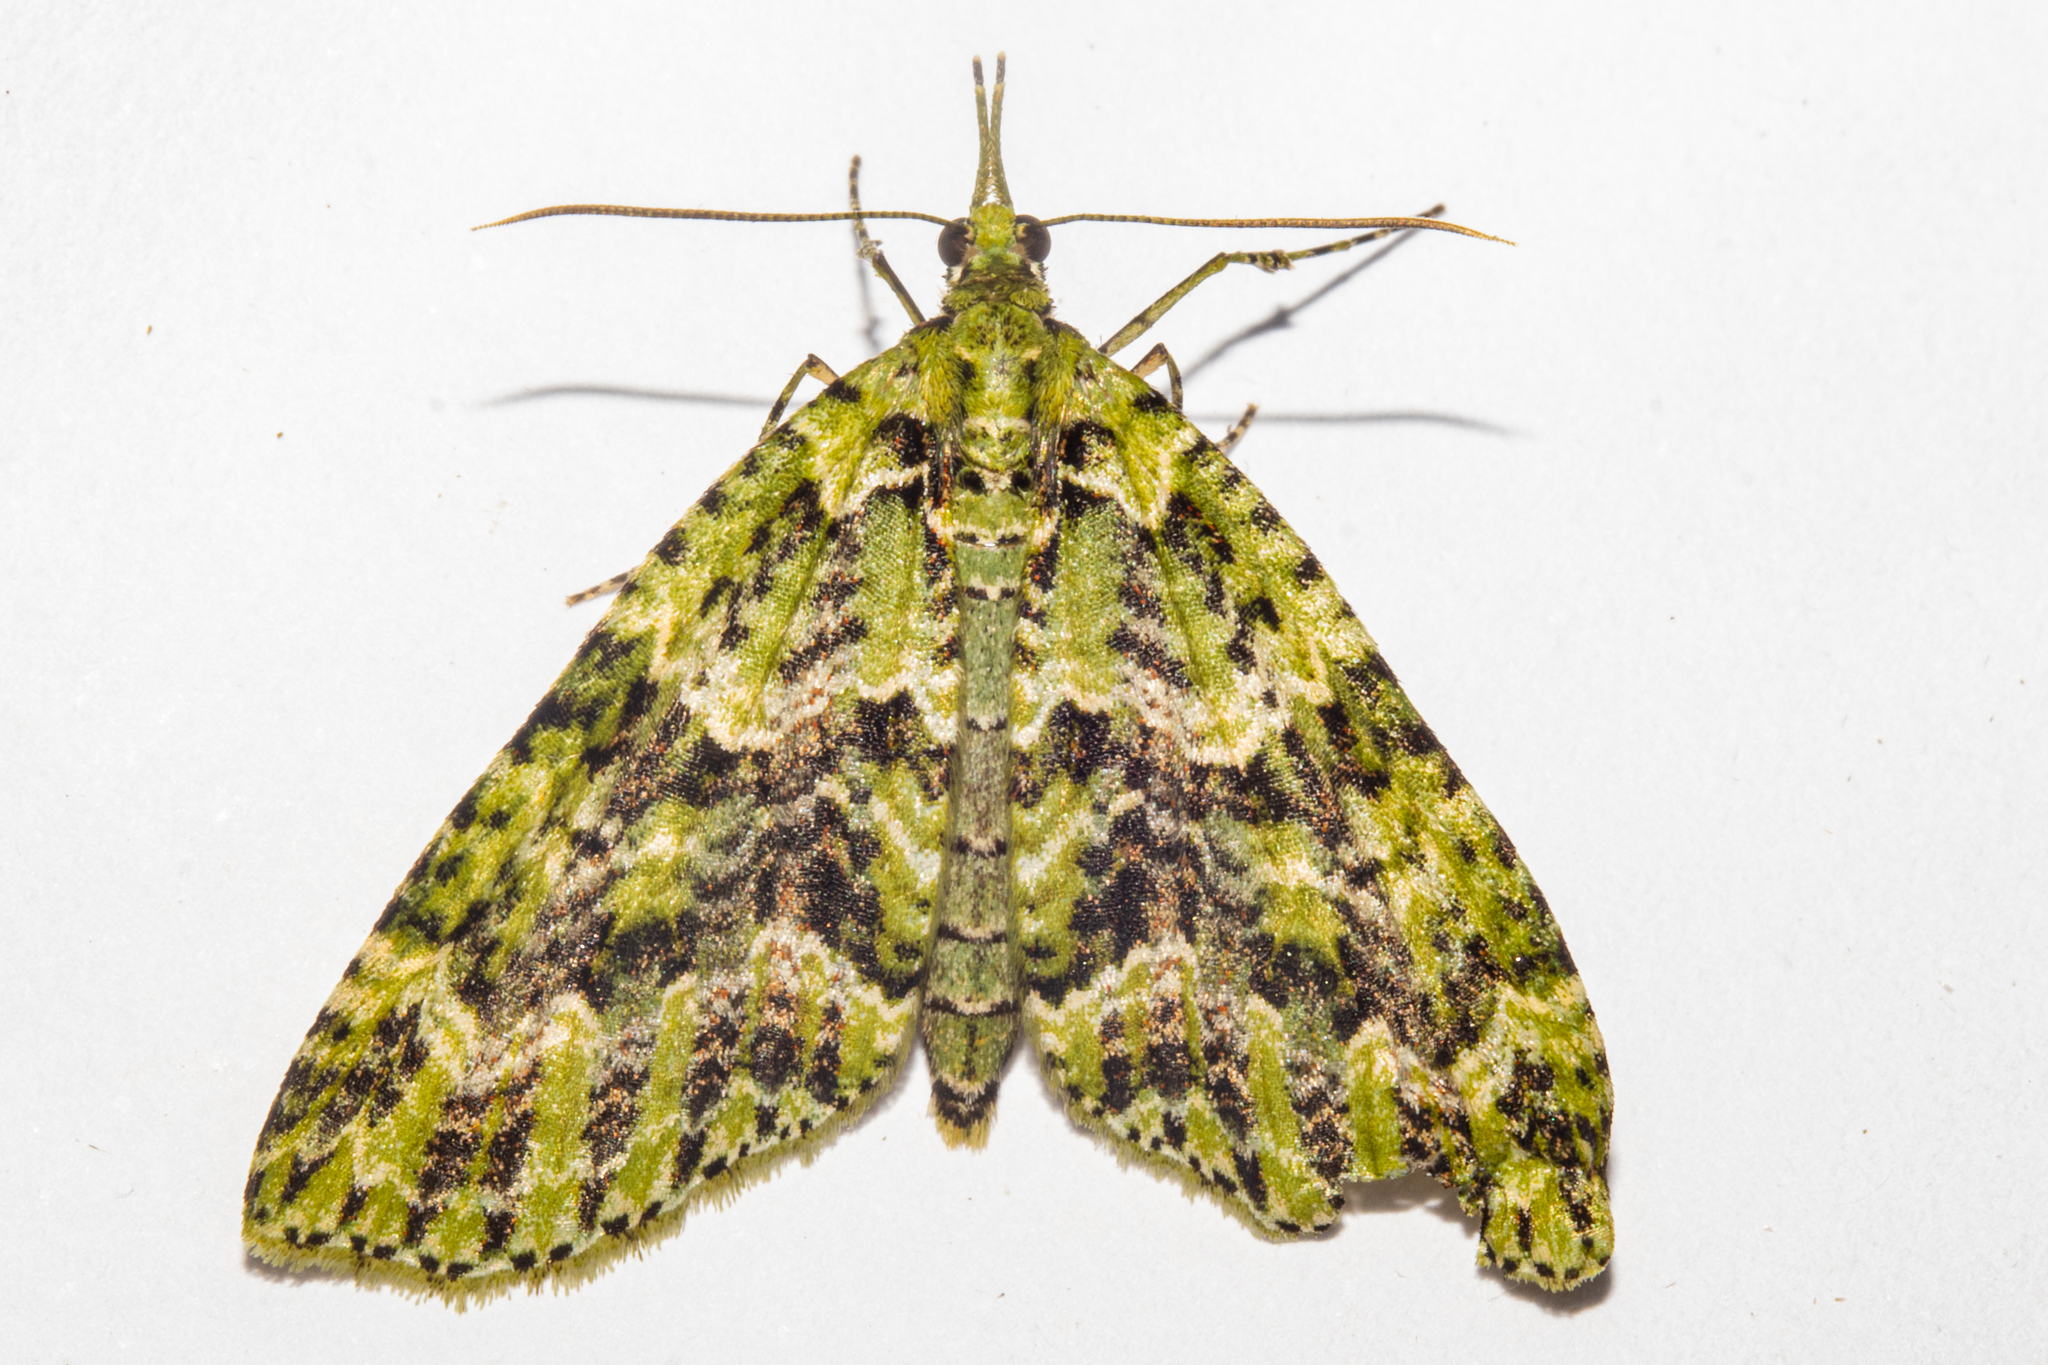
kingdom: Animalia
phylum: Arthropoda
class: Insecta
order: Lepidoptera
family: Geometridae
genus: Tatosoma
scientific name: Tatosoma tipulata
